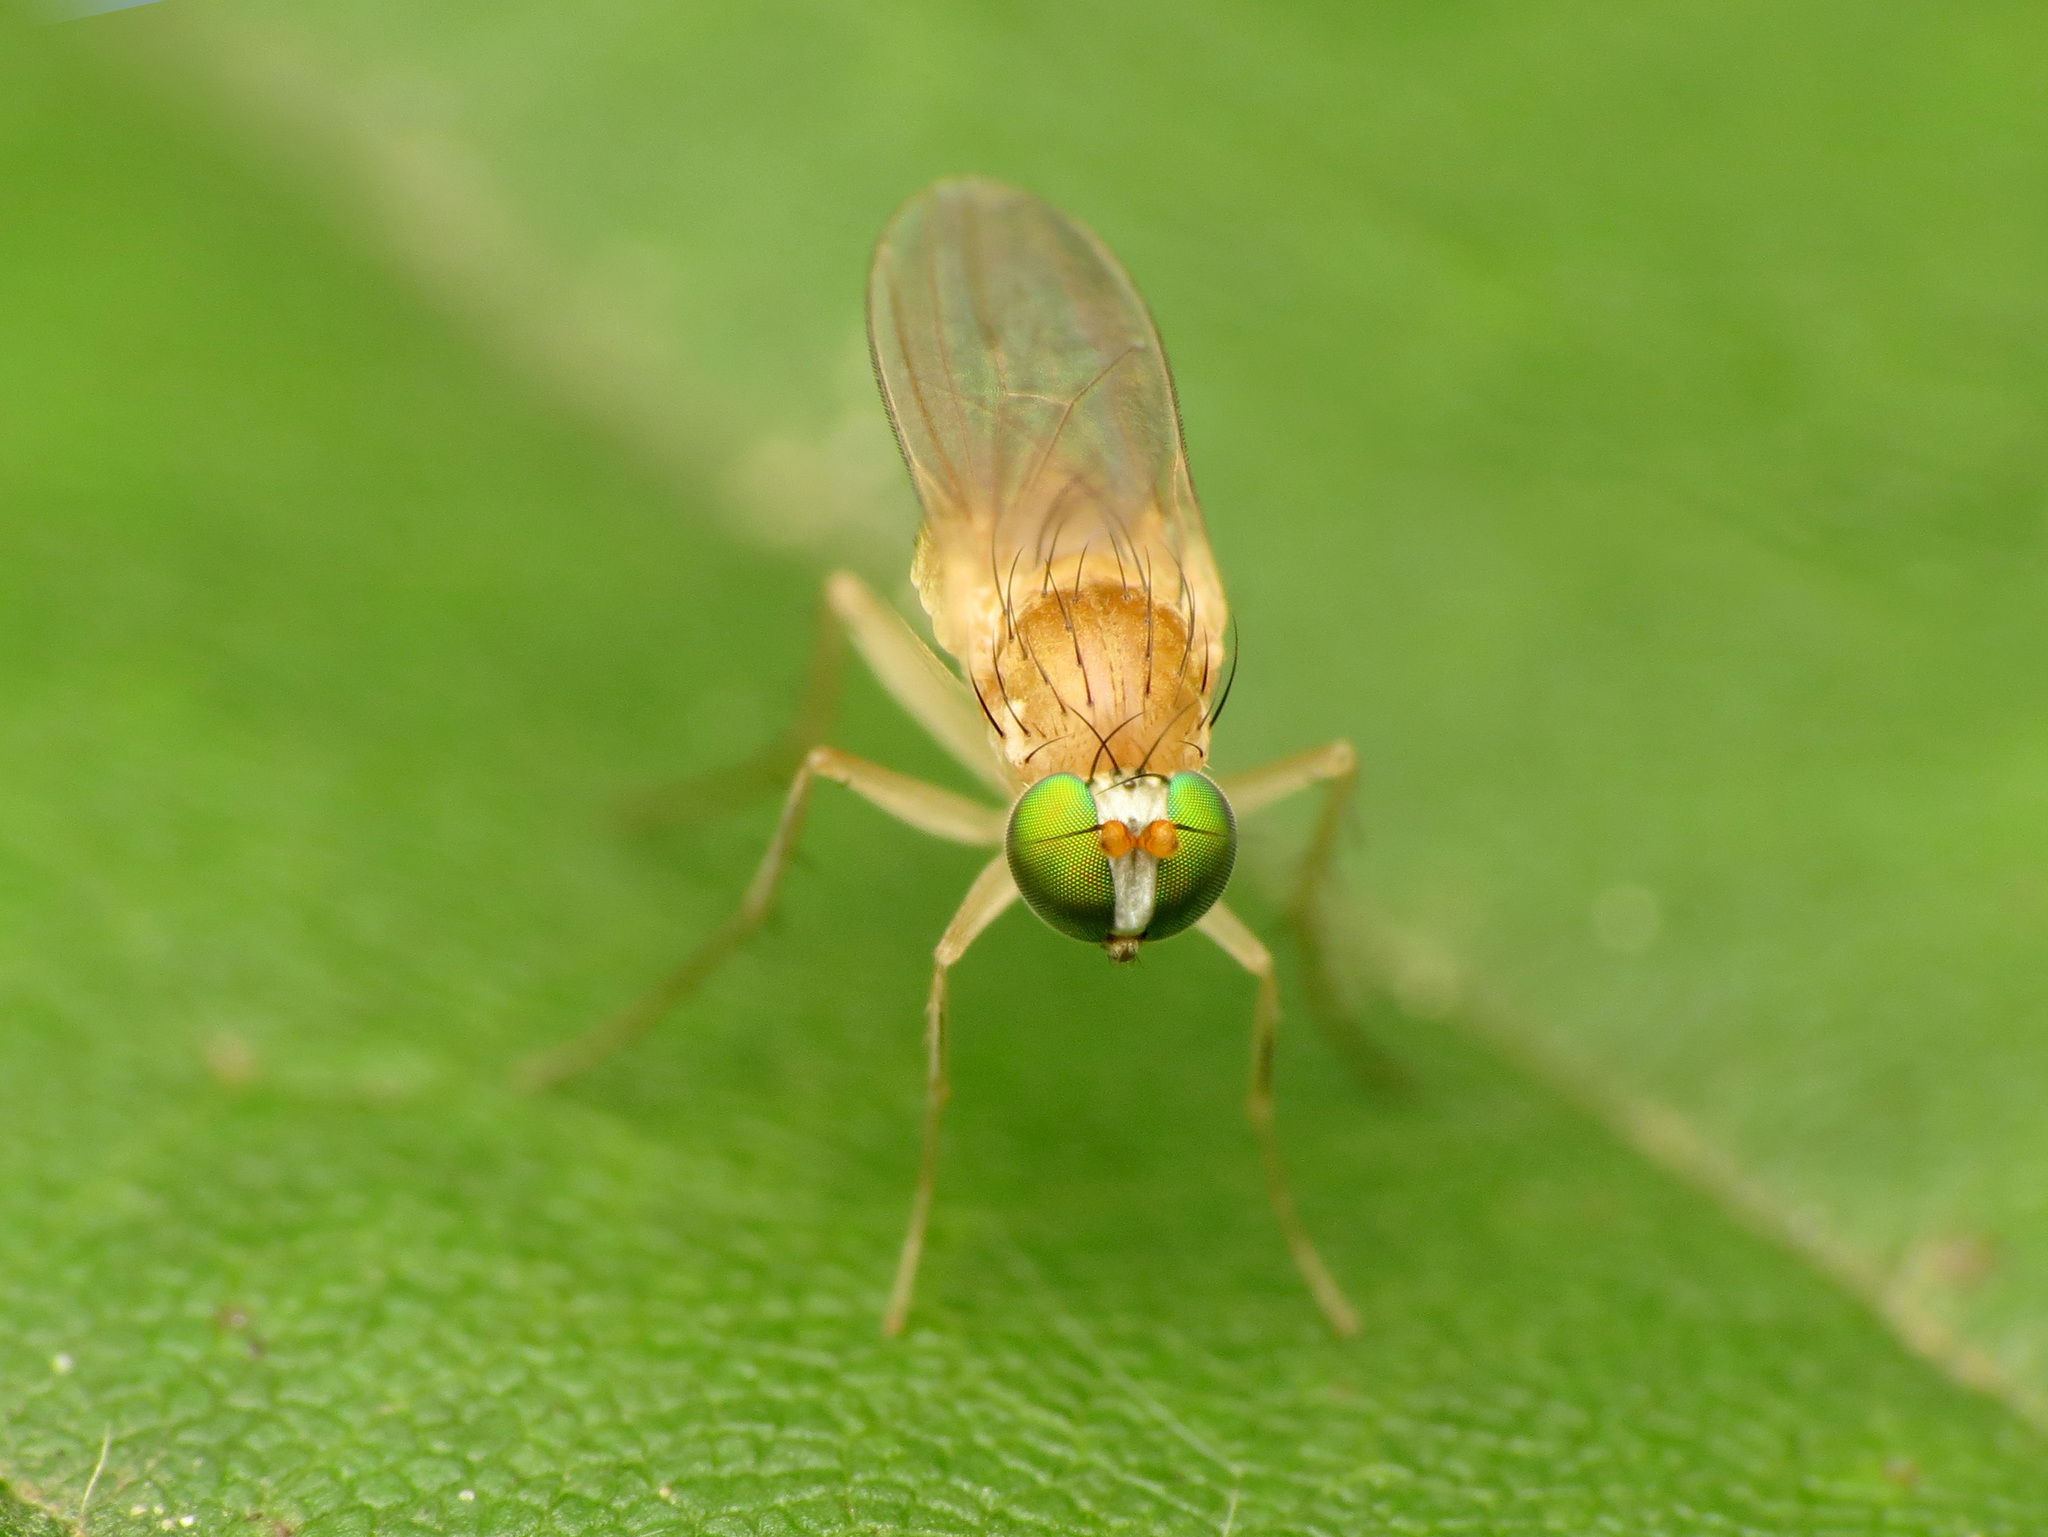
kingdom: Animalia
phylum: Arthropoda
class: Insecta
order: Diptera
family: Dolichopodidae
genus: Gymnopternus
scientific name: Gymnopternus flavus
